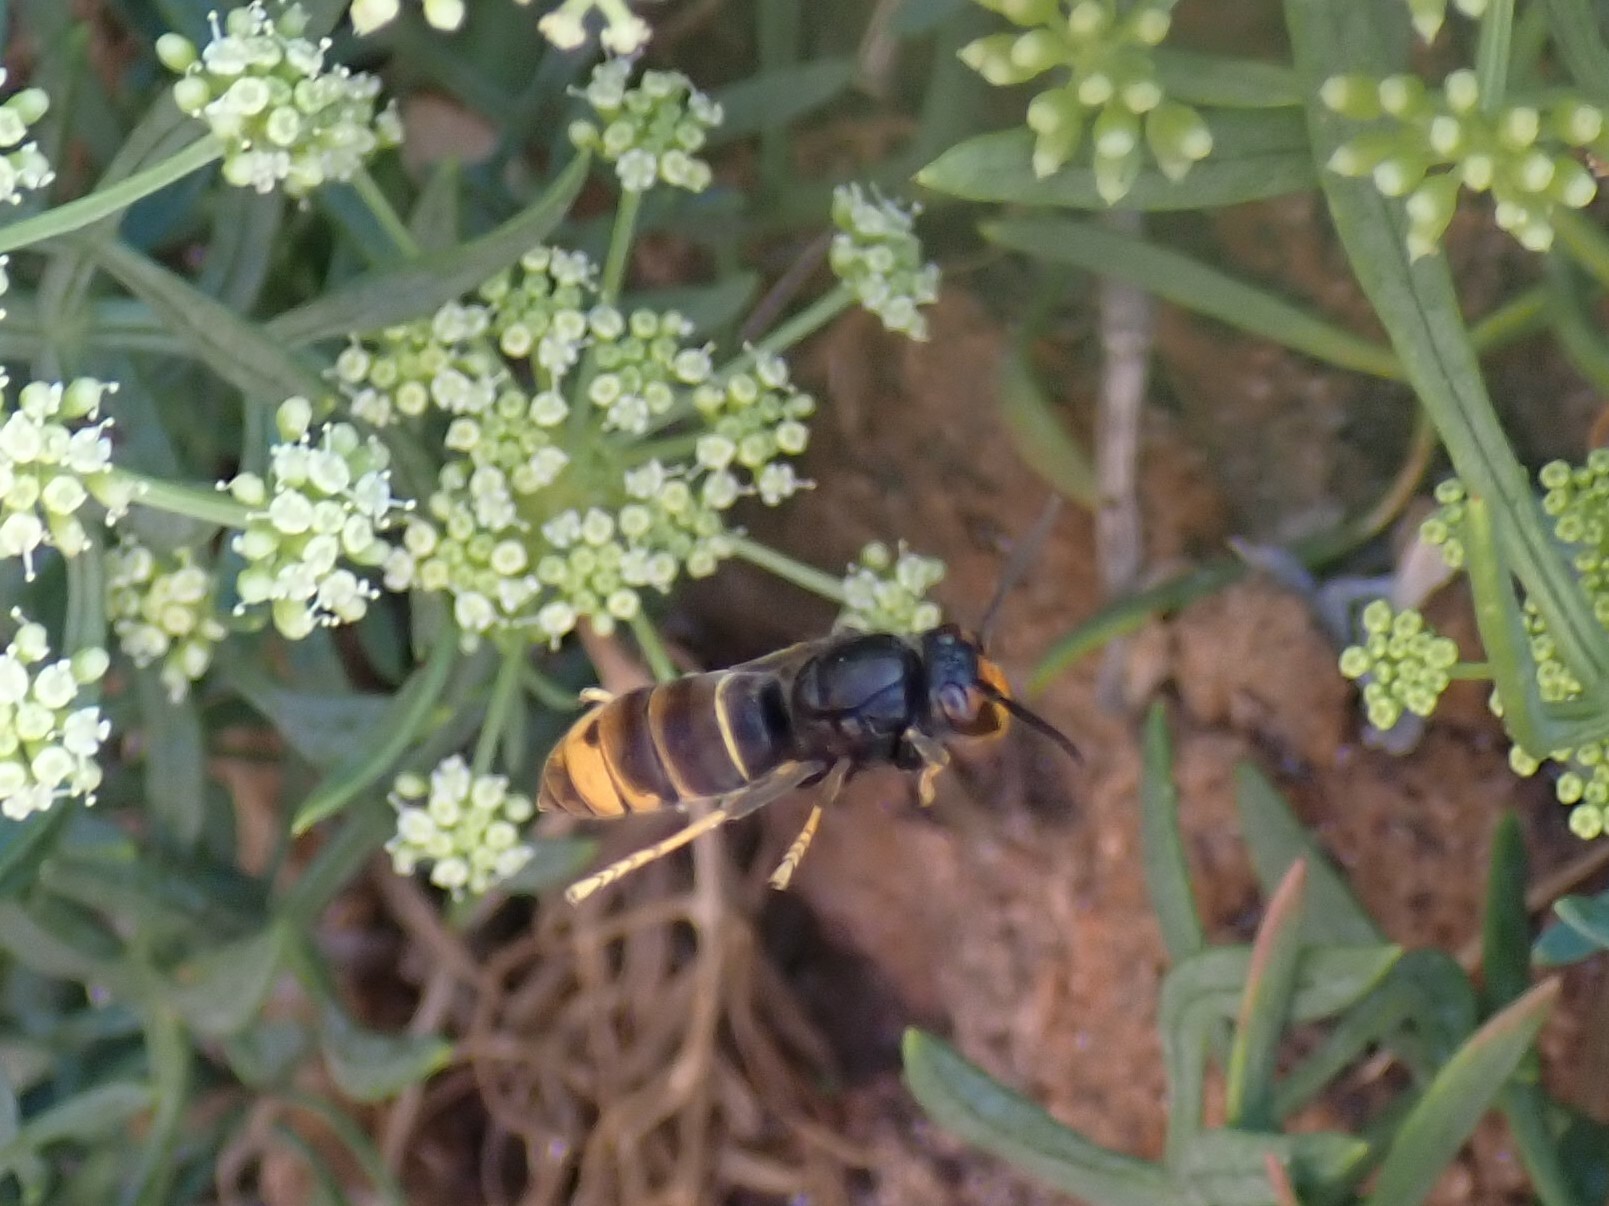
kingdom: Animalia
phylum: Arthropoda
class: Insecta
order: Hymenoptera
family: Vespidae
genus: Vespa
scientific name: Vespa velutina
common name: Asian hornet
